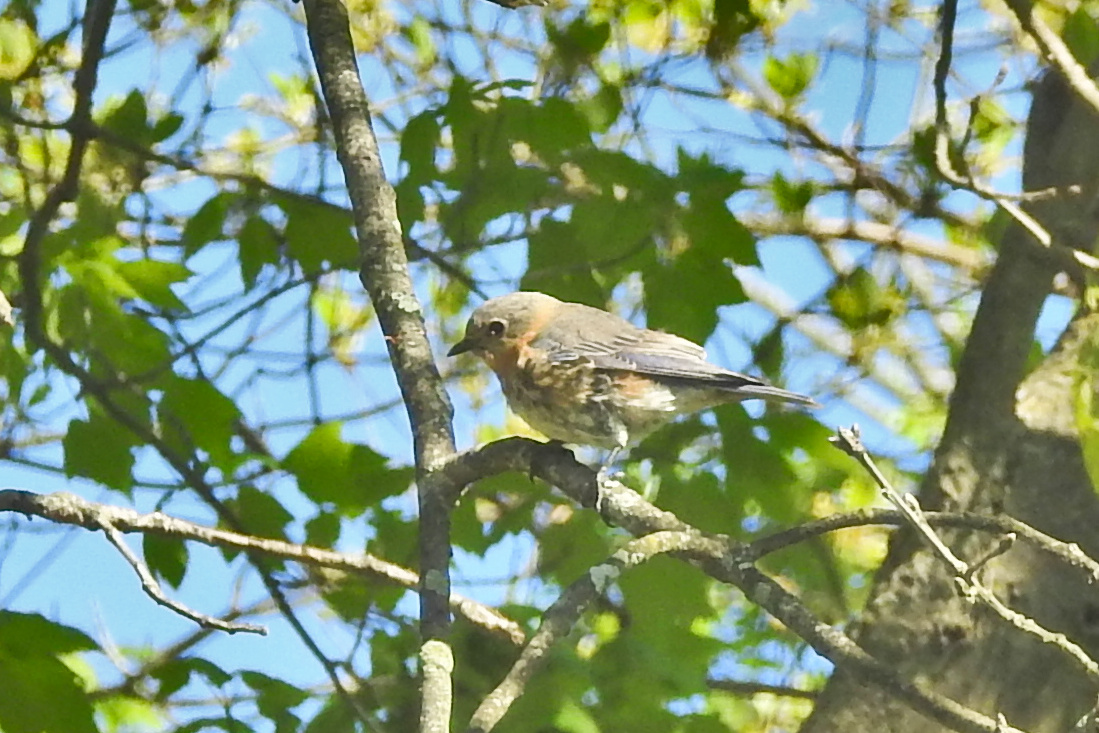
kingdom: Animalia
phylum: Chordata
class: Aves
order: Passeriformes
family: Turdidae
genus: Sialia
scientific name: Sialia sialis
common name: Eastern bluebird
